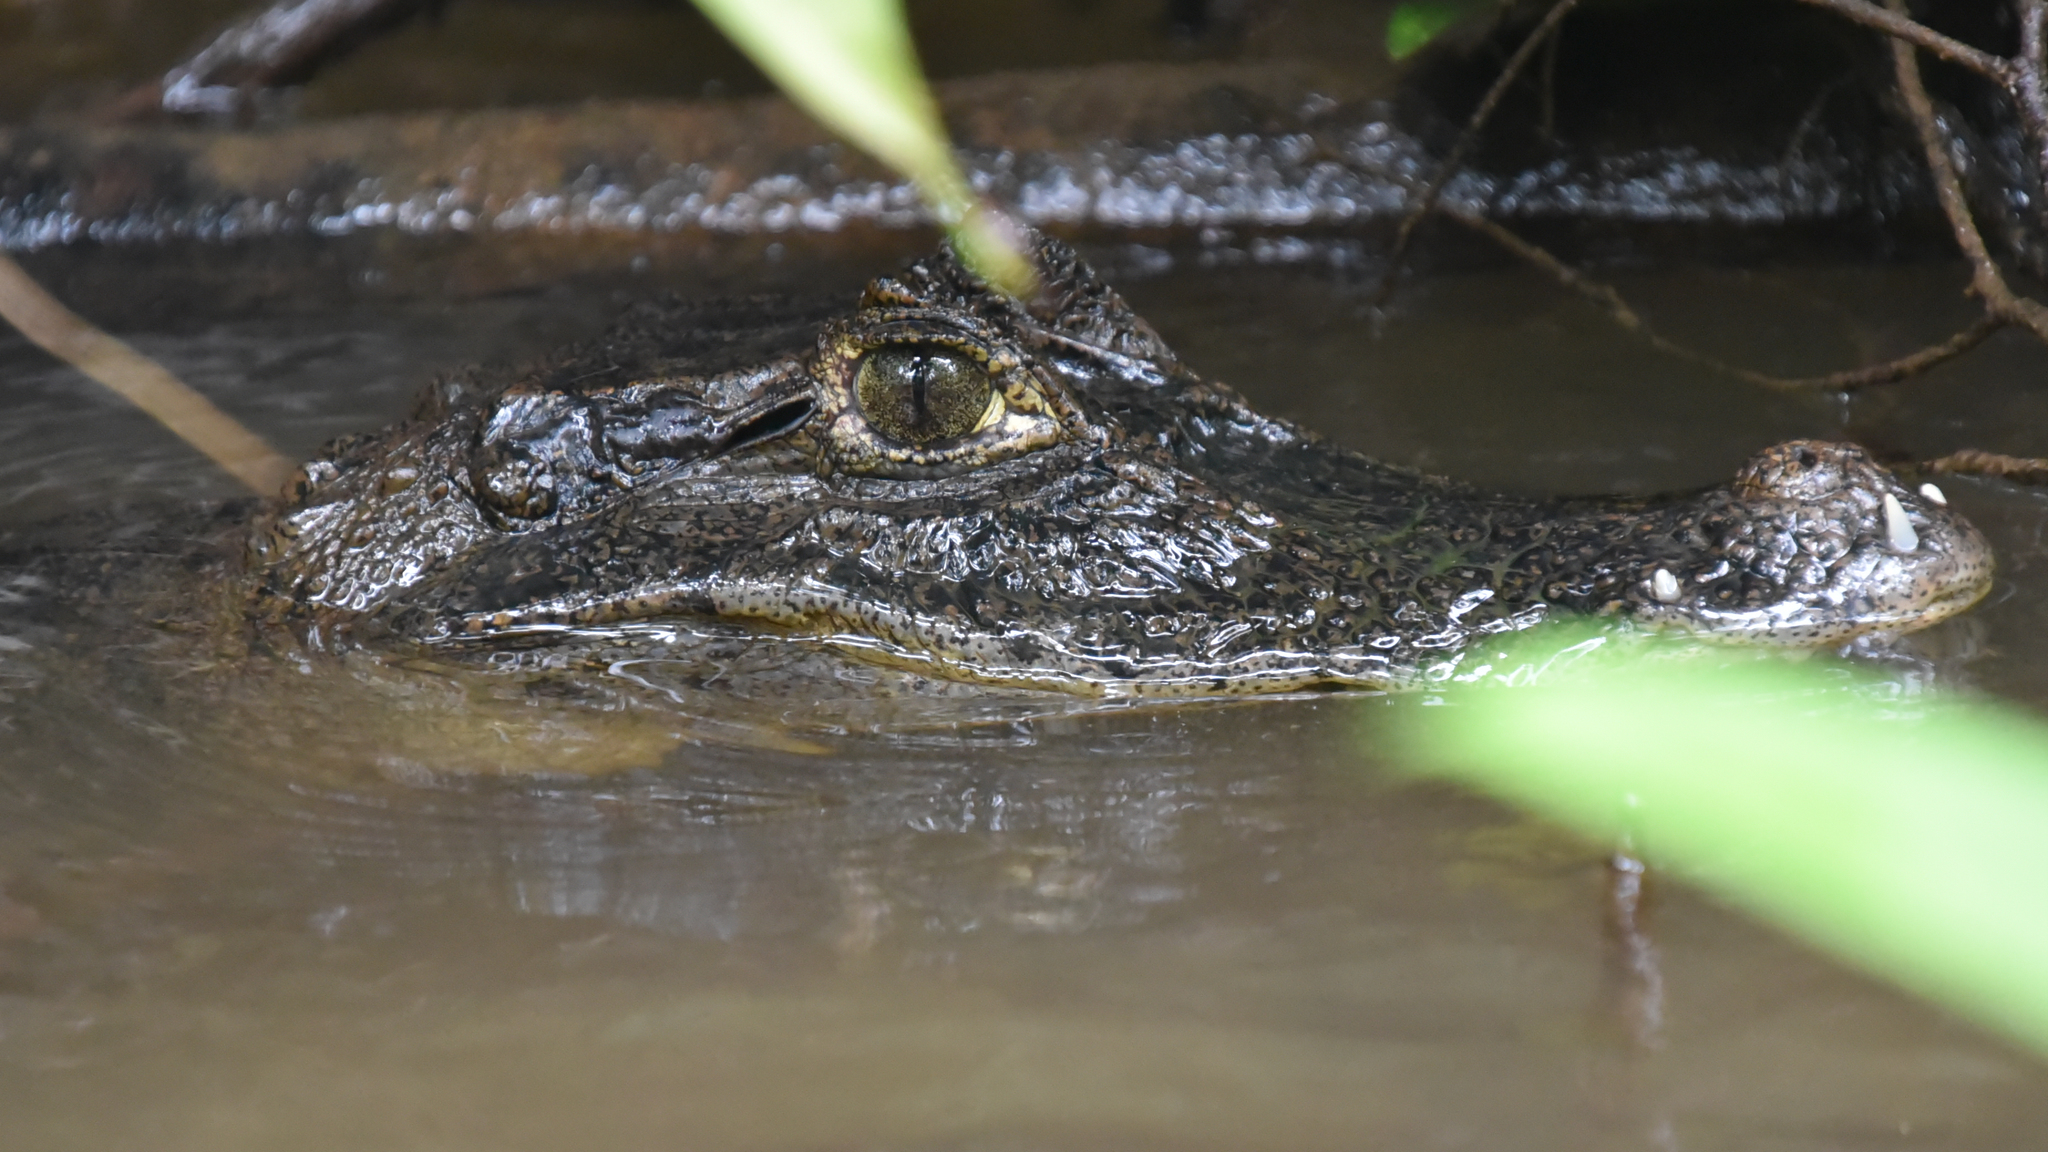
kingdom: Animalia
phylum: Chordata
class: Crocodylia
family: Alligatoridae
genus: Caiman
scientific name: Caiman crocodilus
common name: Common caiman
